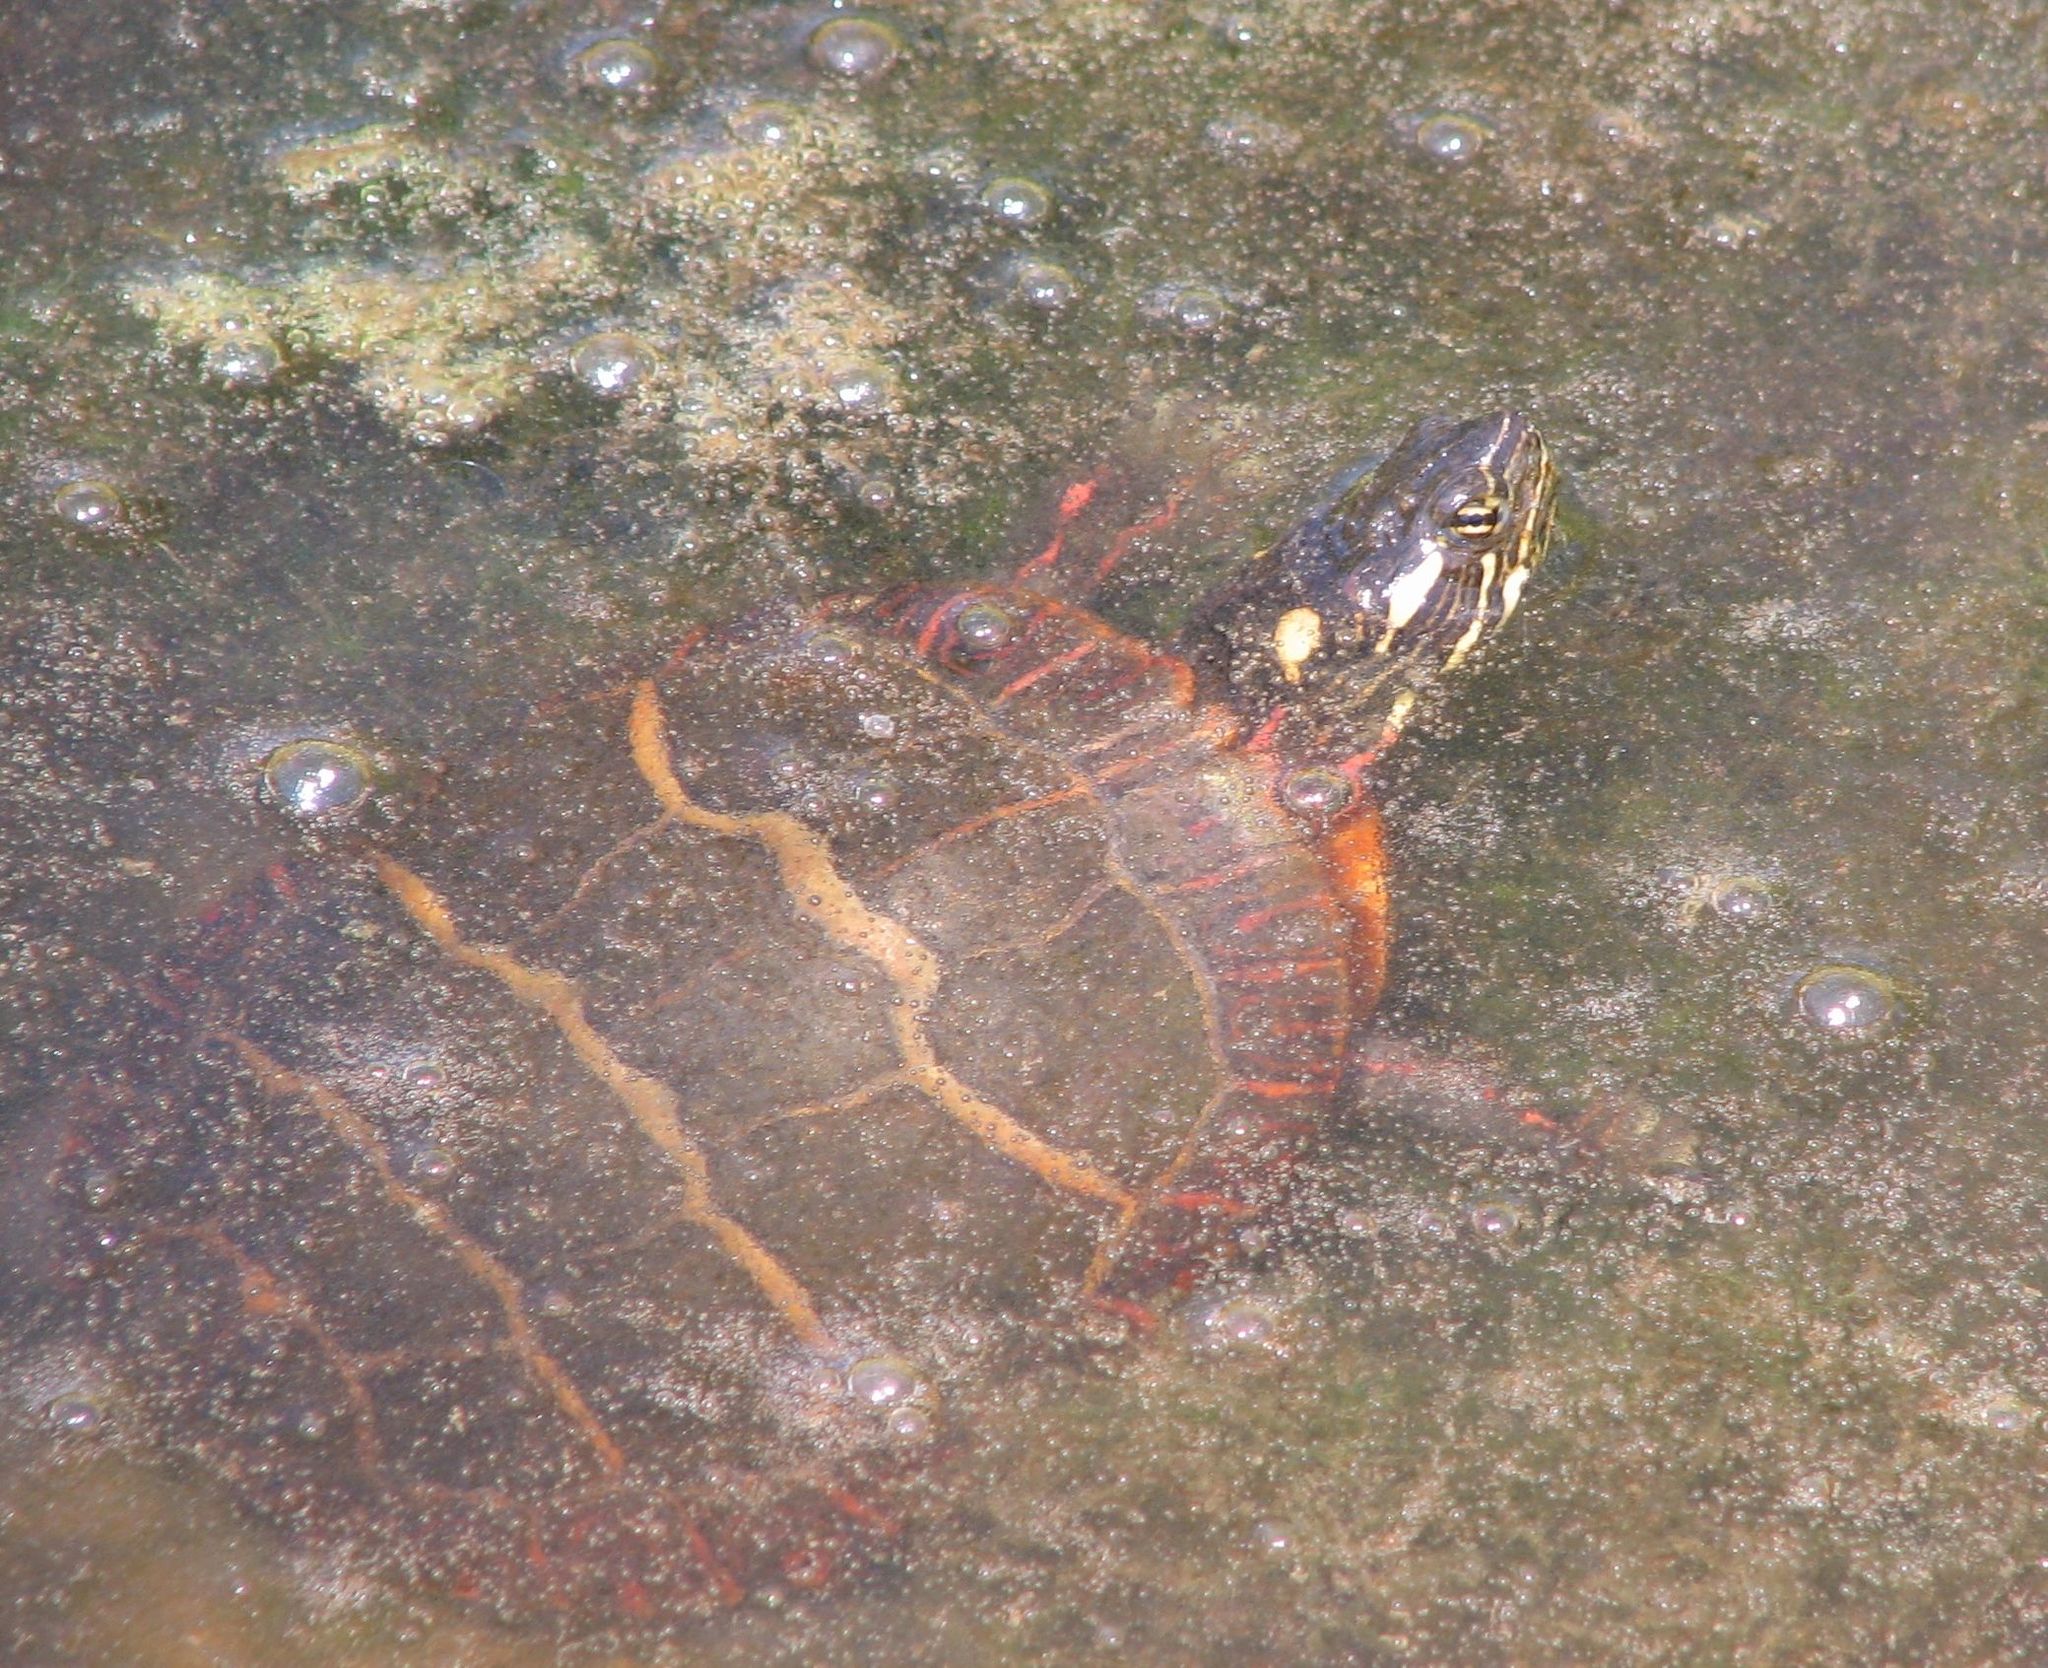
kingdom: Animalia
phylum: Chordata
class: Testudines
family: Emydidae
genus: Chrysemys
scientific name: Chrysemys picta
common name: Painted turtle
